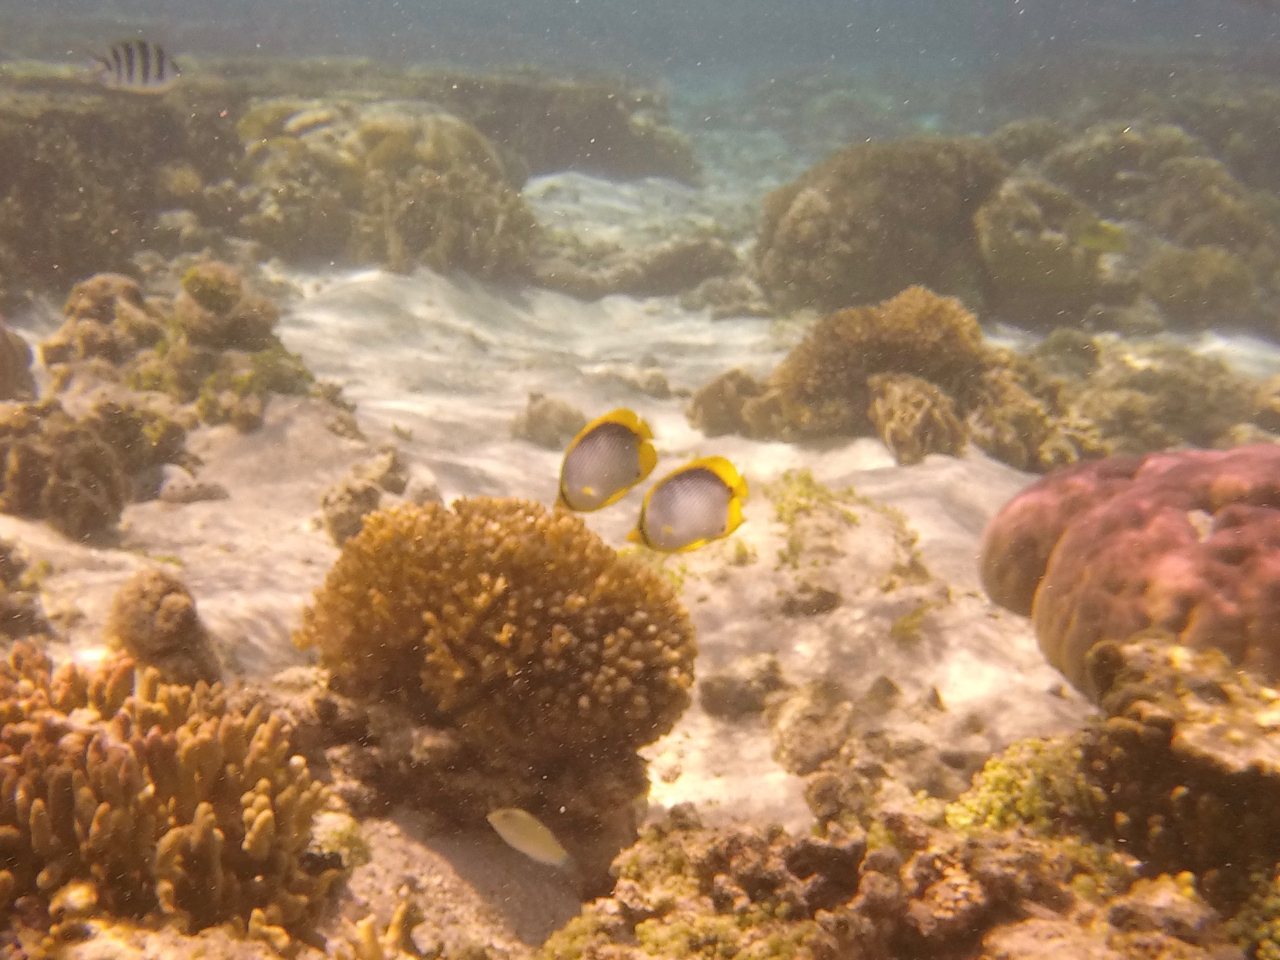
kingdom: Animalia
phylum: Chordata
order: Perciformes
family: Chaetodontidae
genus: Chaetodon
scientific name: Chaetodon melannotus
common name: Blackback butterflyfish
